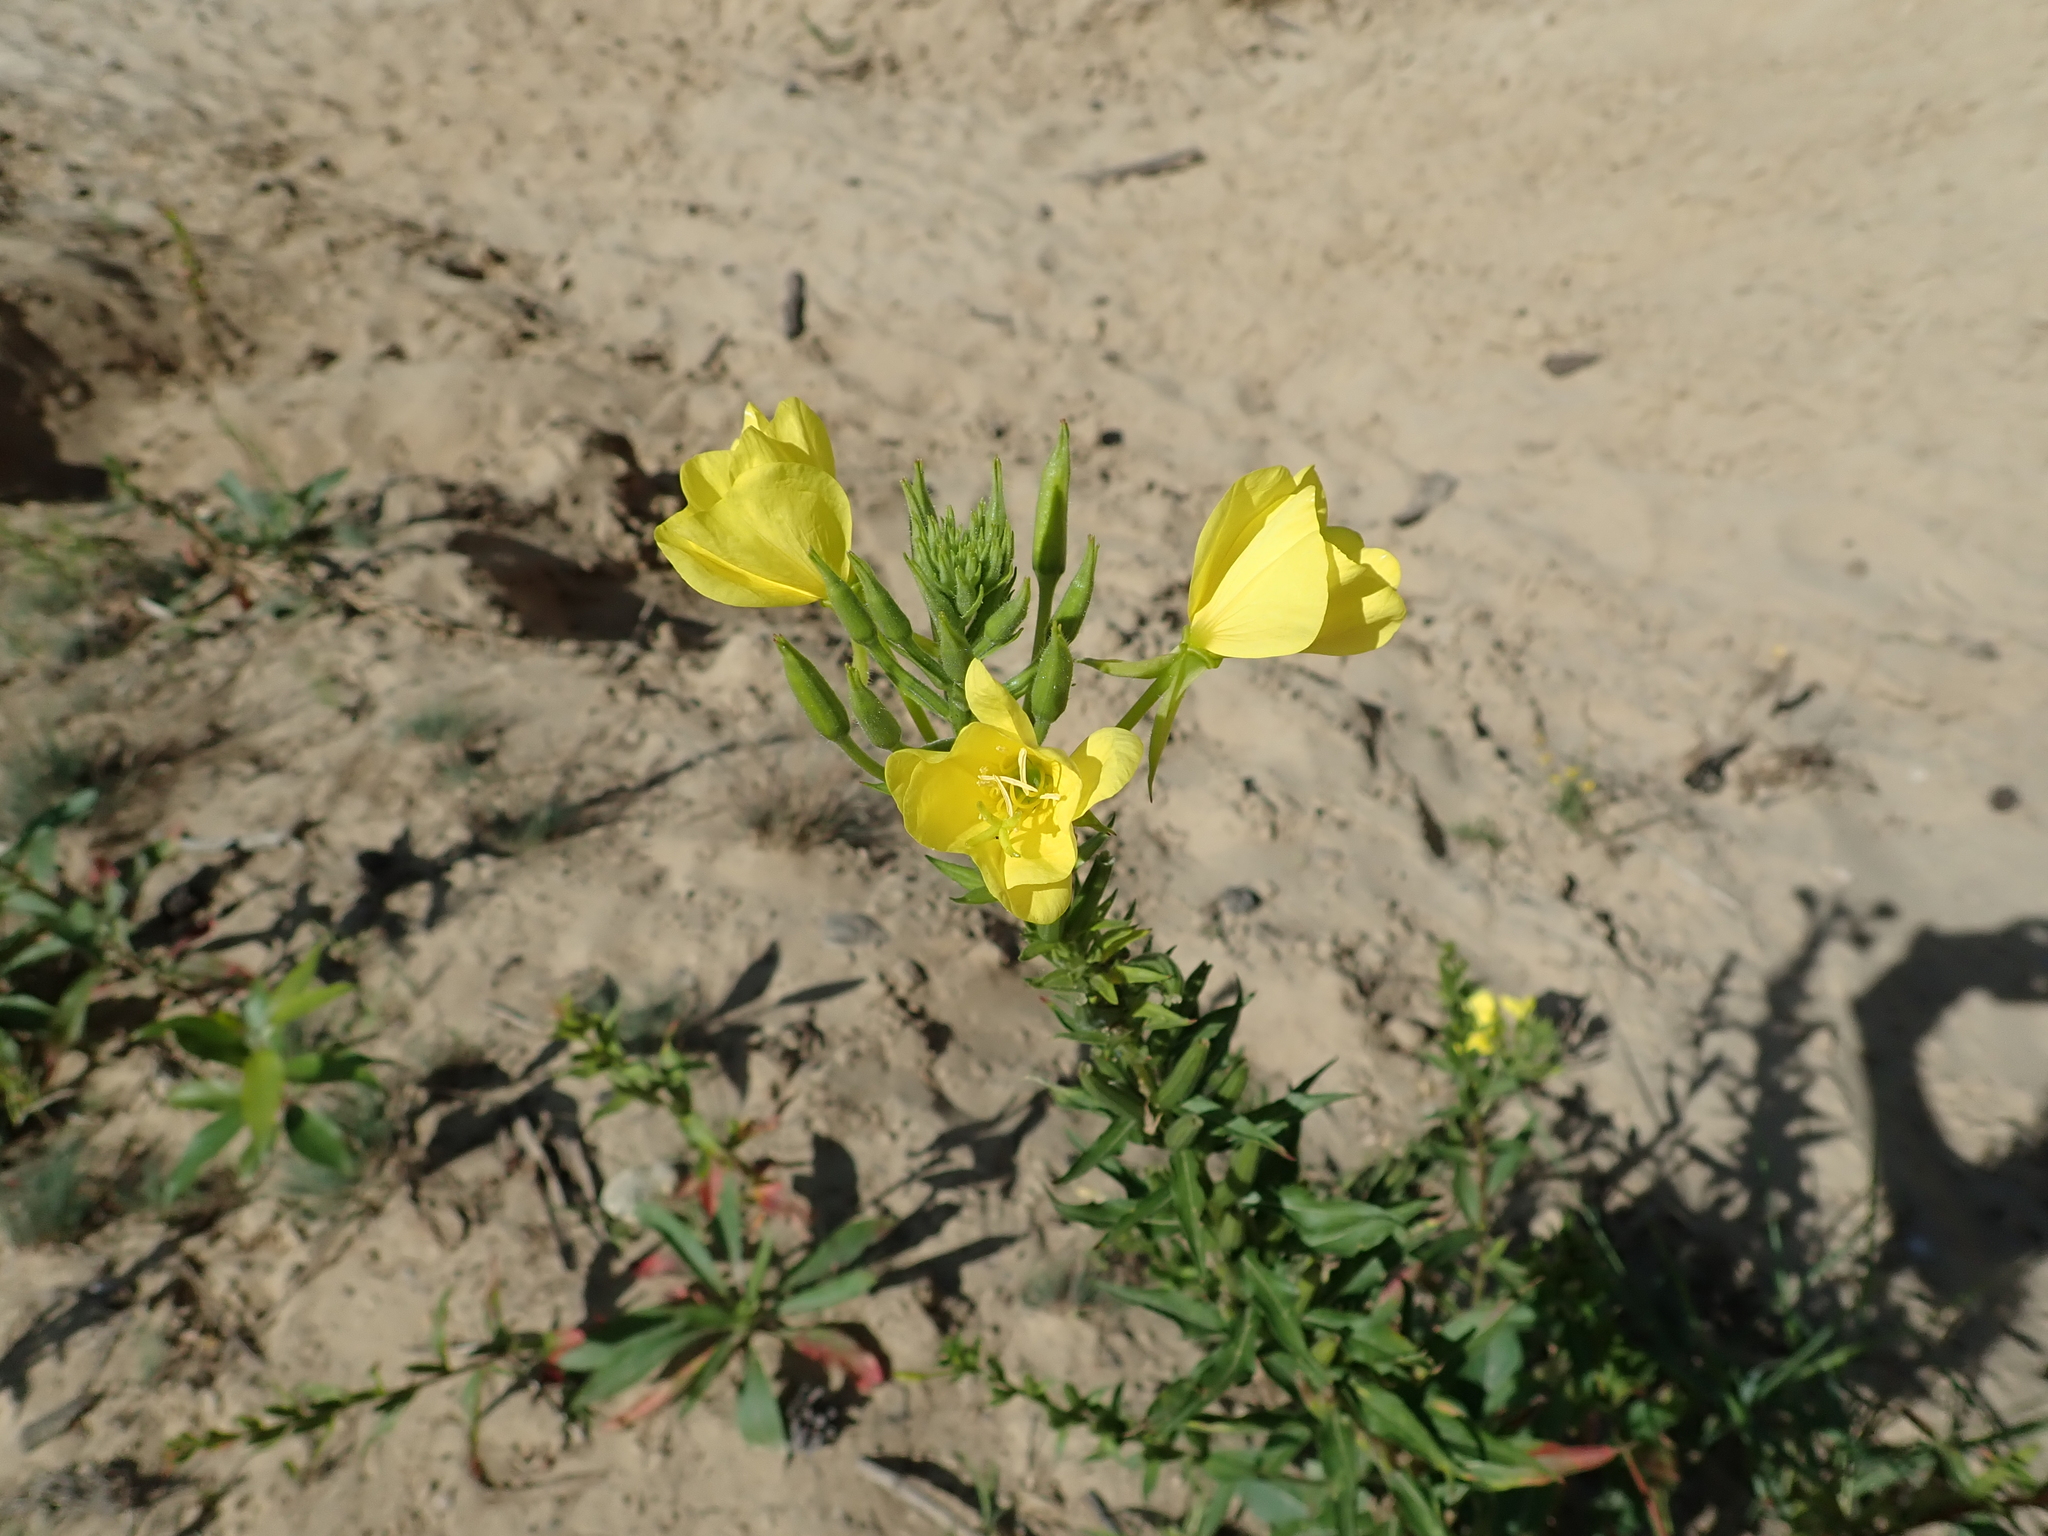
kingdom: Plantae
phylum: Tracheophyta
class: Magnoliopsida
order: Myrtales
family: Onagraceae
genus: Oenothera
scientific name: Oenothera biennis
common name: Common evening-primrose
